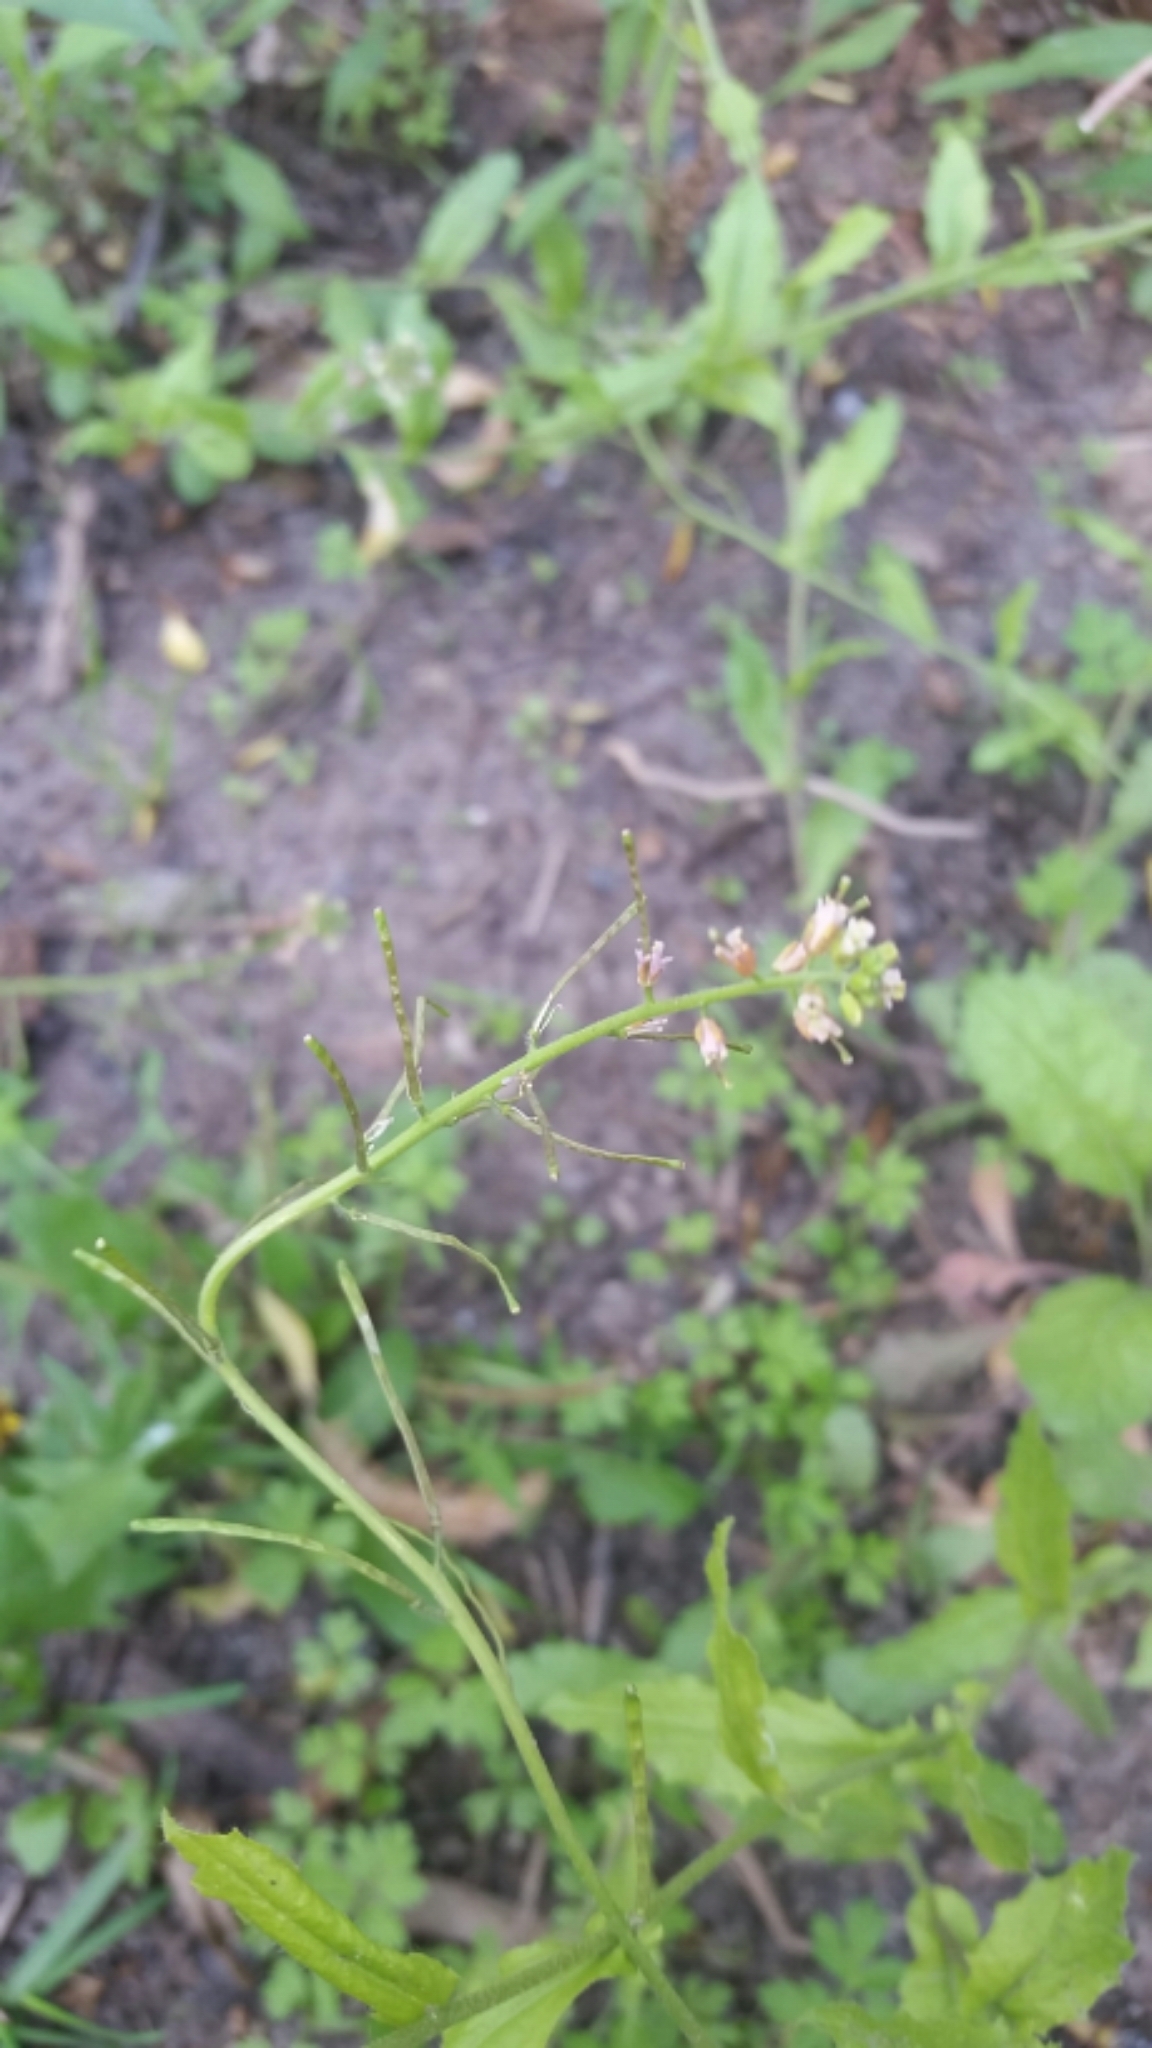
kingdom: Plantae
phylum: Tracheophyta
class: Magnoliopsida
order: Brassicales
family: Brassicaceae
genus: Borodinia
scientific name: Borodinia dentata
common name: Short's rockcress
